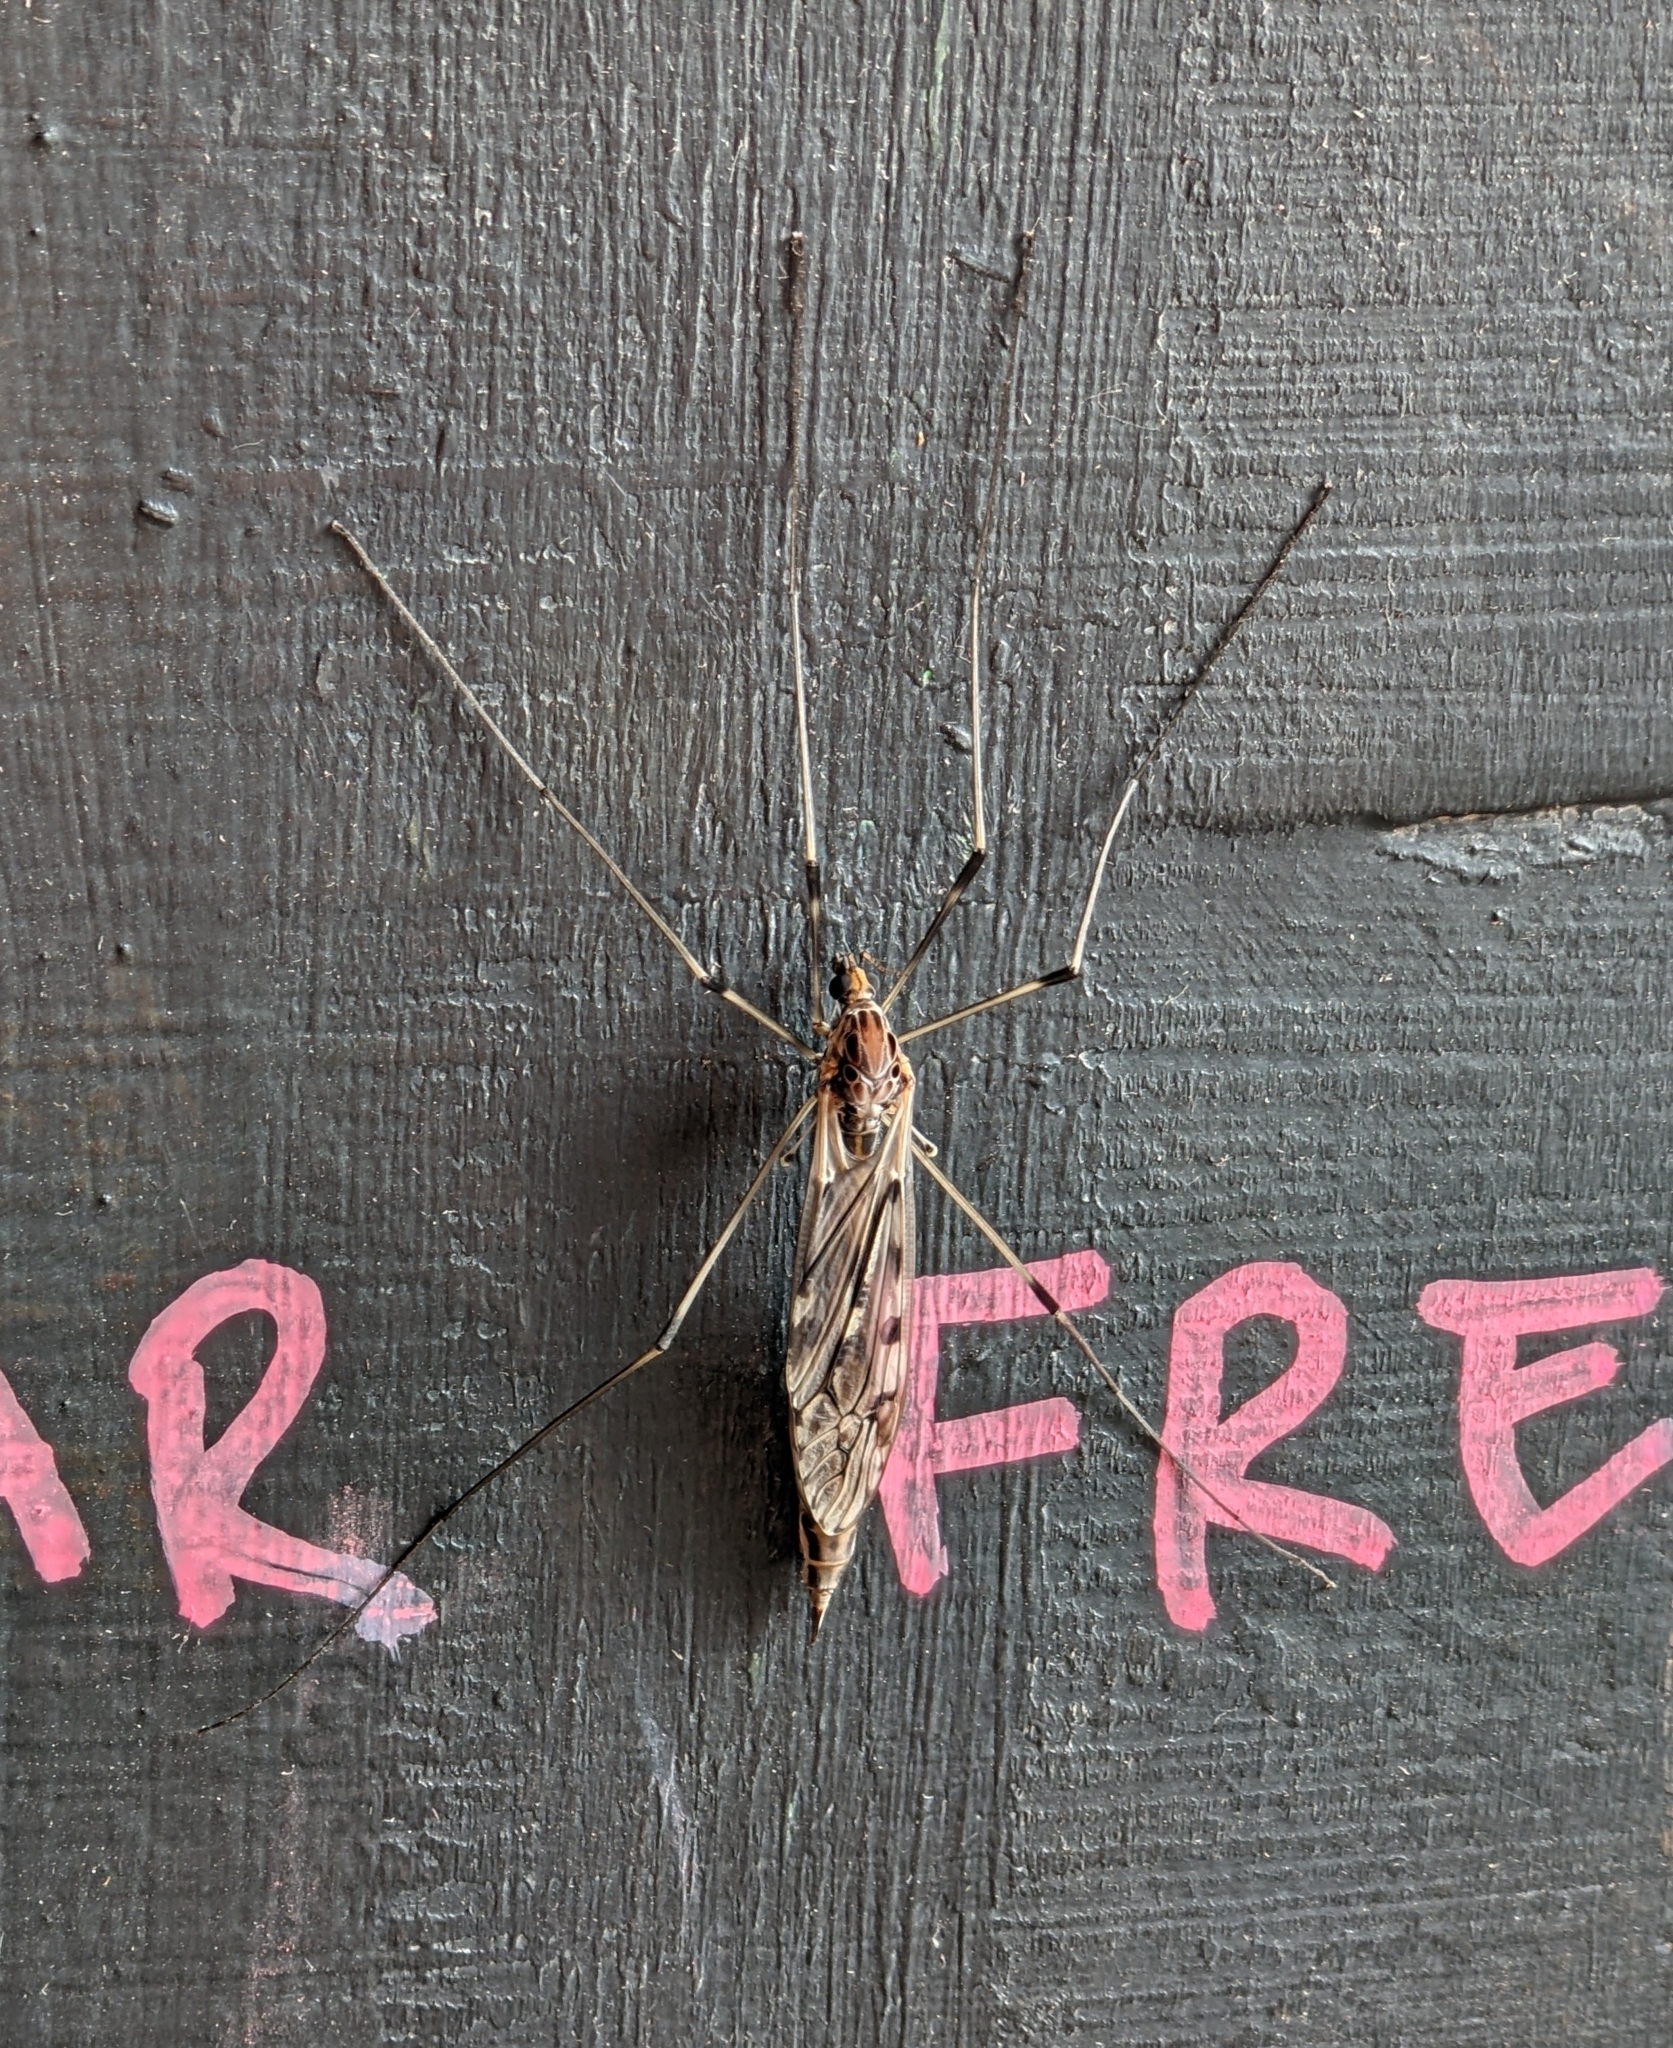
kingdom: Animalia
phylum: Arthropoda
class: Insecta
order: Diptera
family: Tipulidae
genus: Tipula
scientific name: Tipula abdominalis
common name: Giant crane fly
